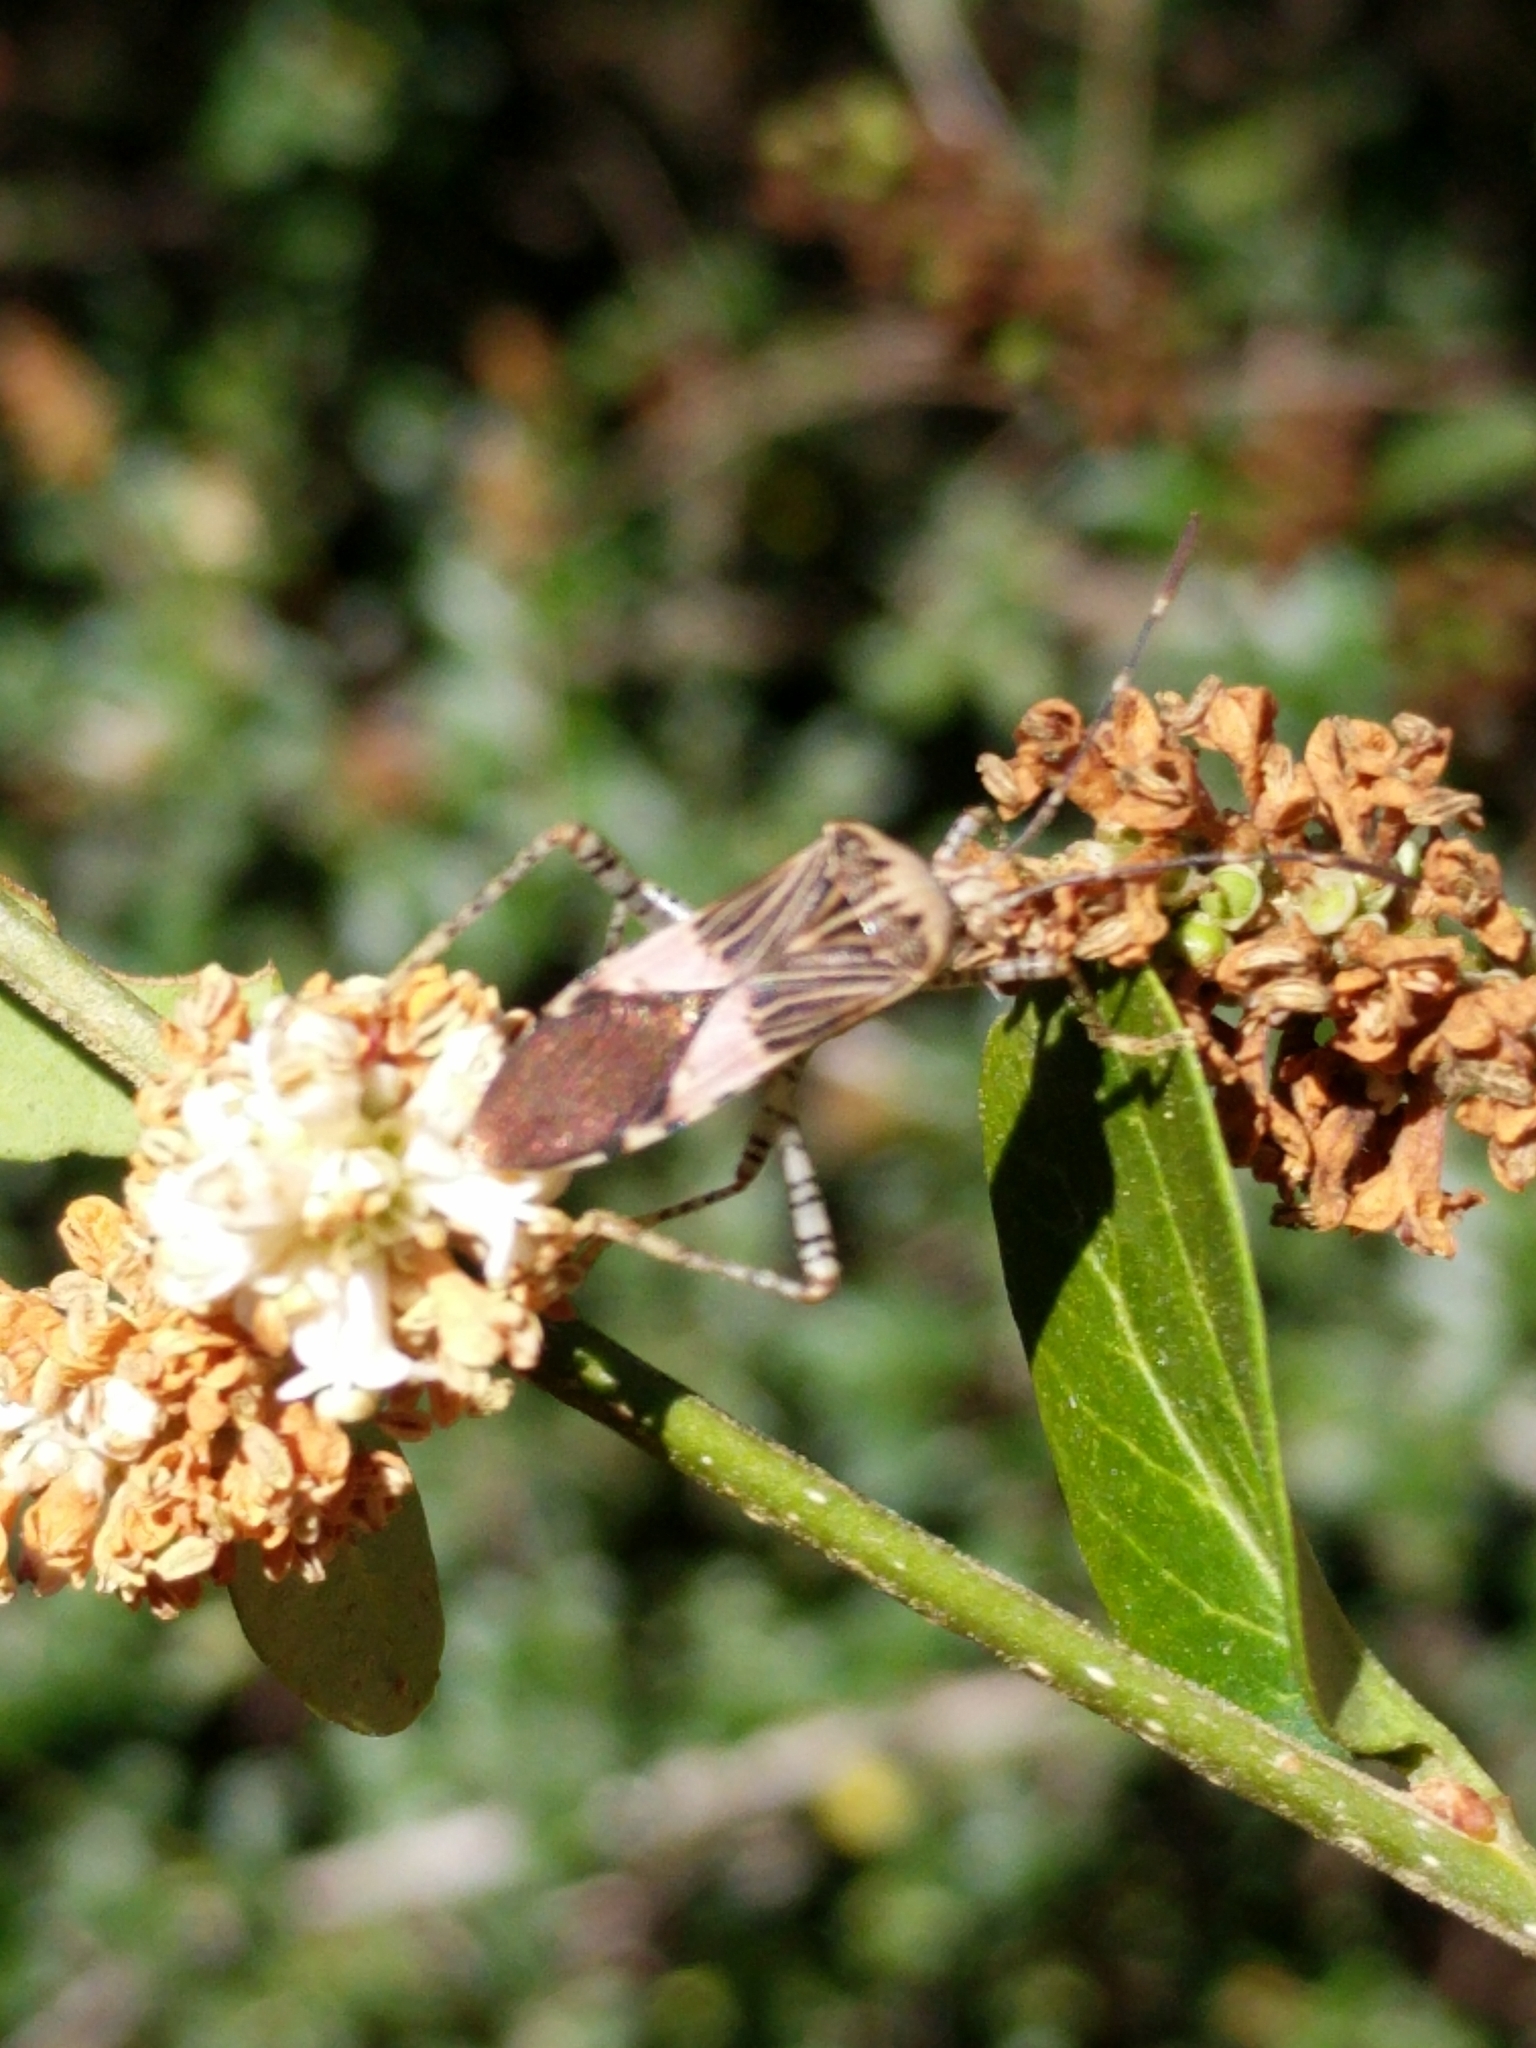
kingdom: Animalia
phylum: Arthropoda
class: Insecta
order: Hemiptera
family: Coreidae
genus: Hypselonotus
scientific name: Hypselonotus punctiventris
